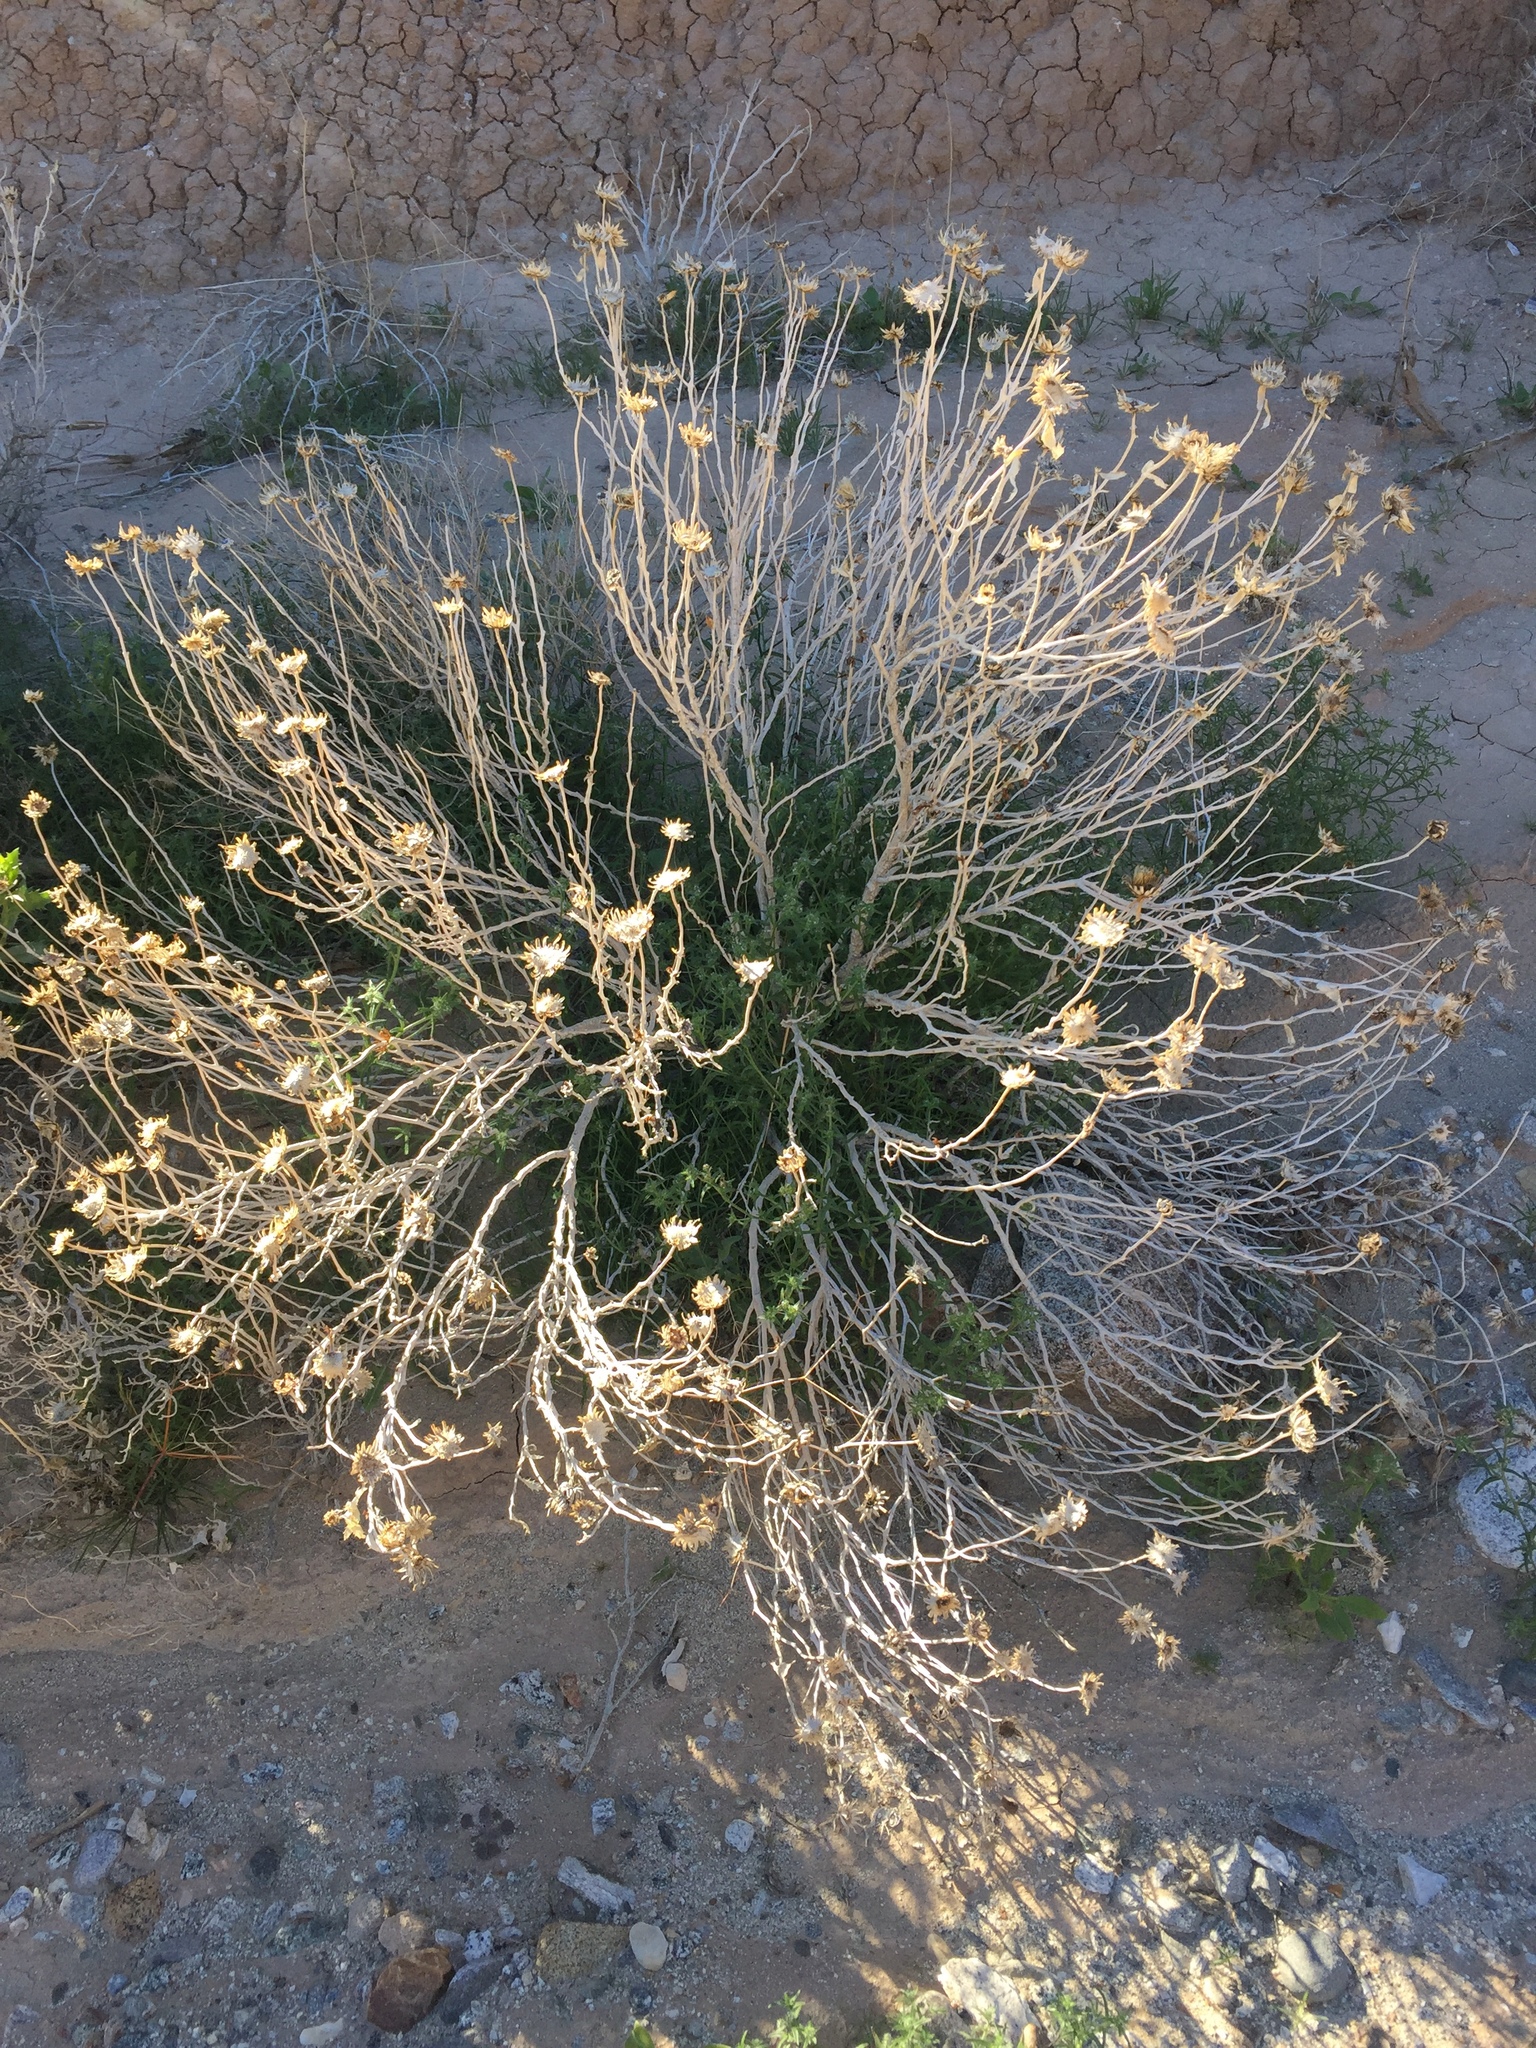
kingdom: Plantae
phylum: Tracheophyta
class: Magnoliopsida
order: Asterales
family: Asteraceae
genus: Xylorhiza
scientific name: Xylorhiza orcuttii
